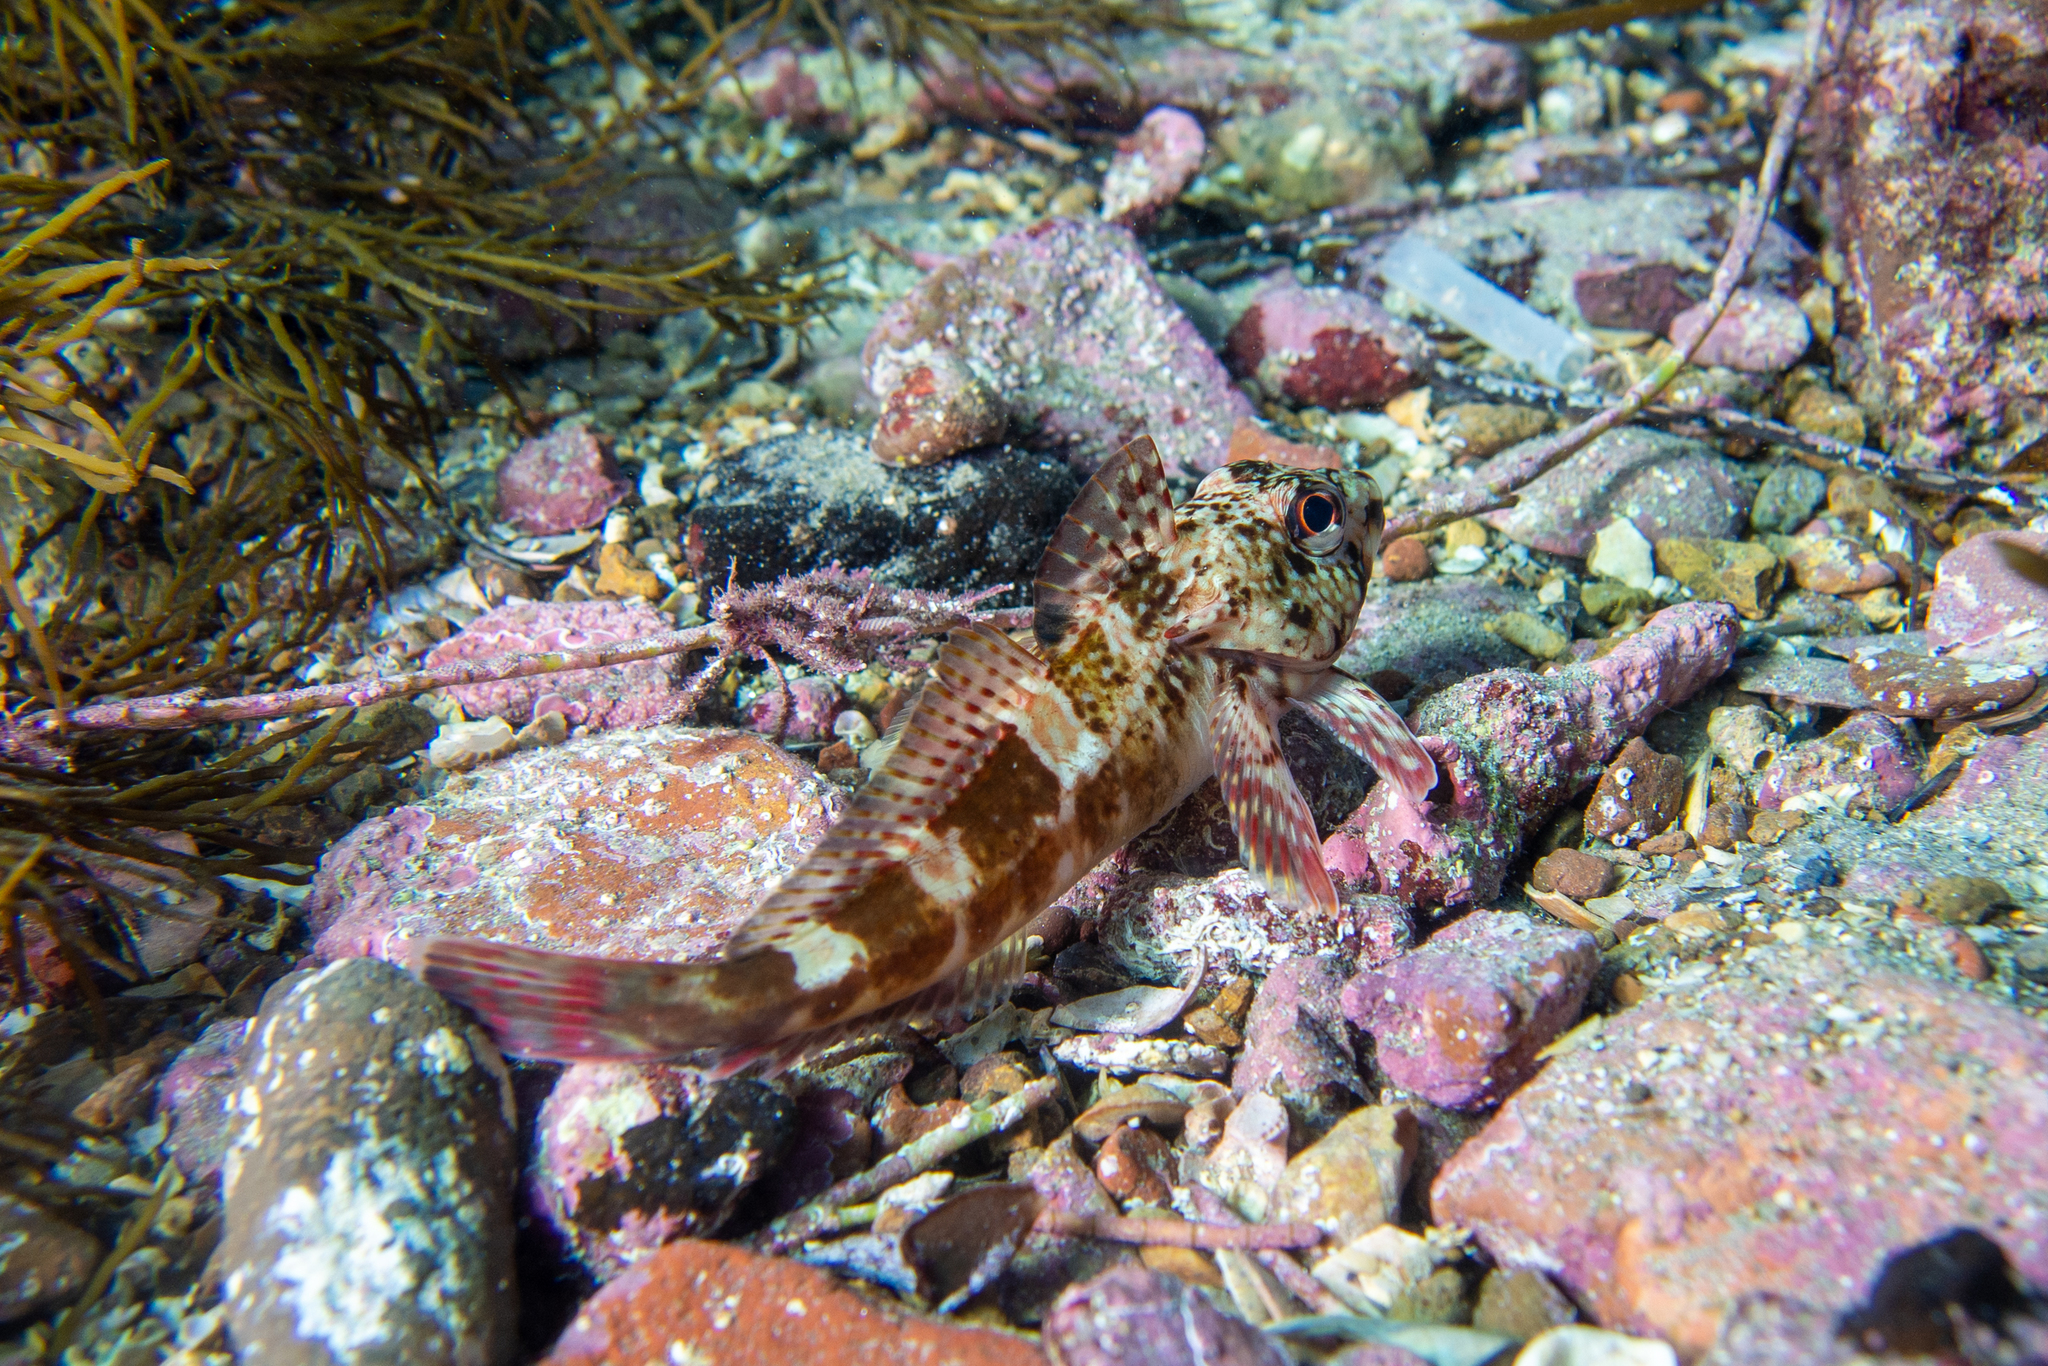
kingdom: Animalia
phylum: Chordata
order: Perciformes
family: Bovichtidae
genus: Bovichtus
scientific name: Bovichtus angustifrons
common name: Dragonet
